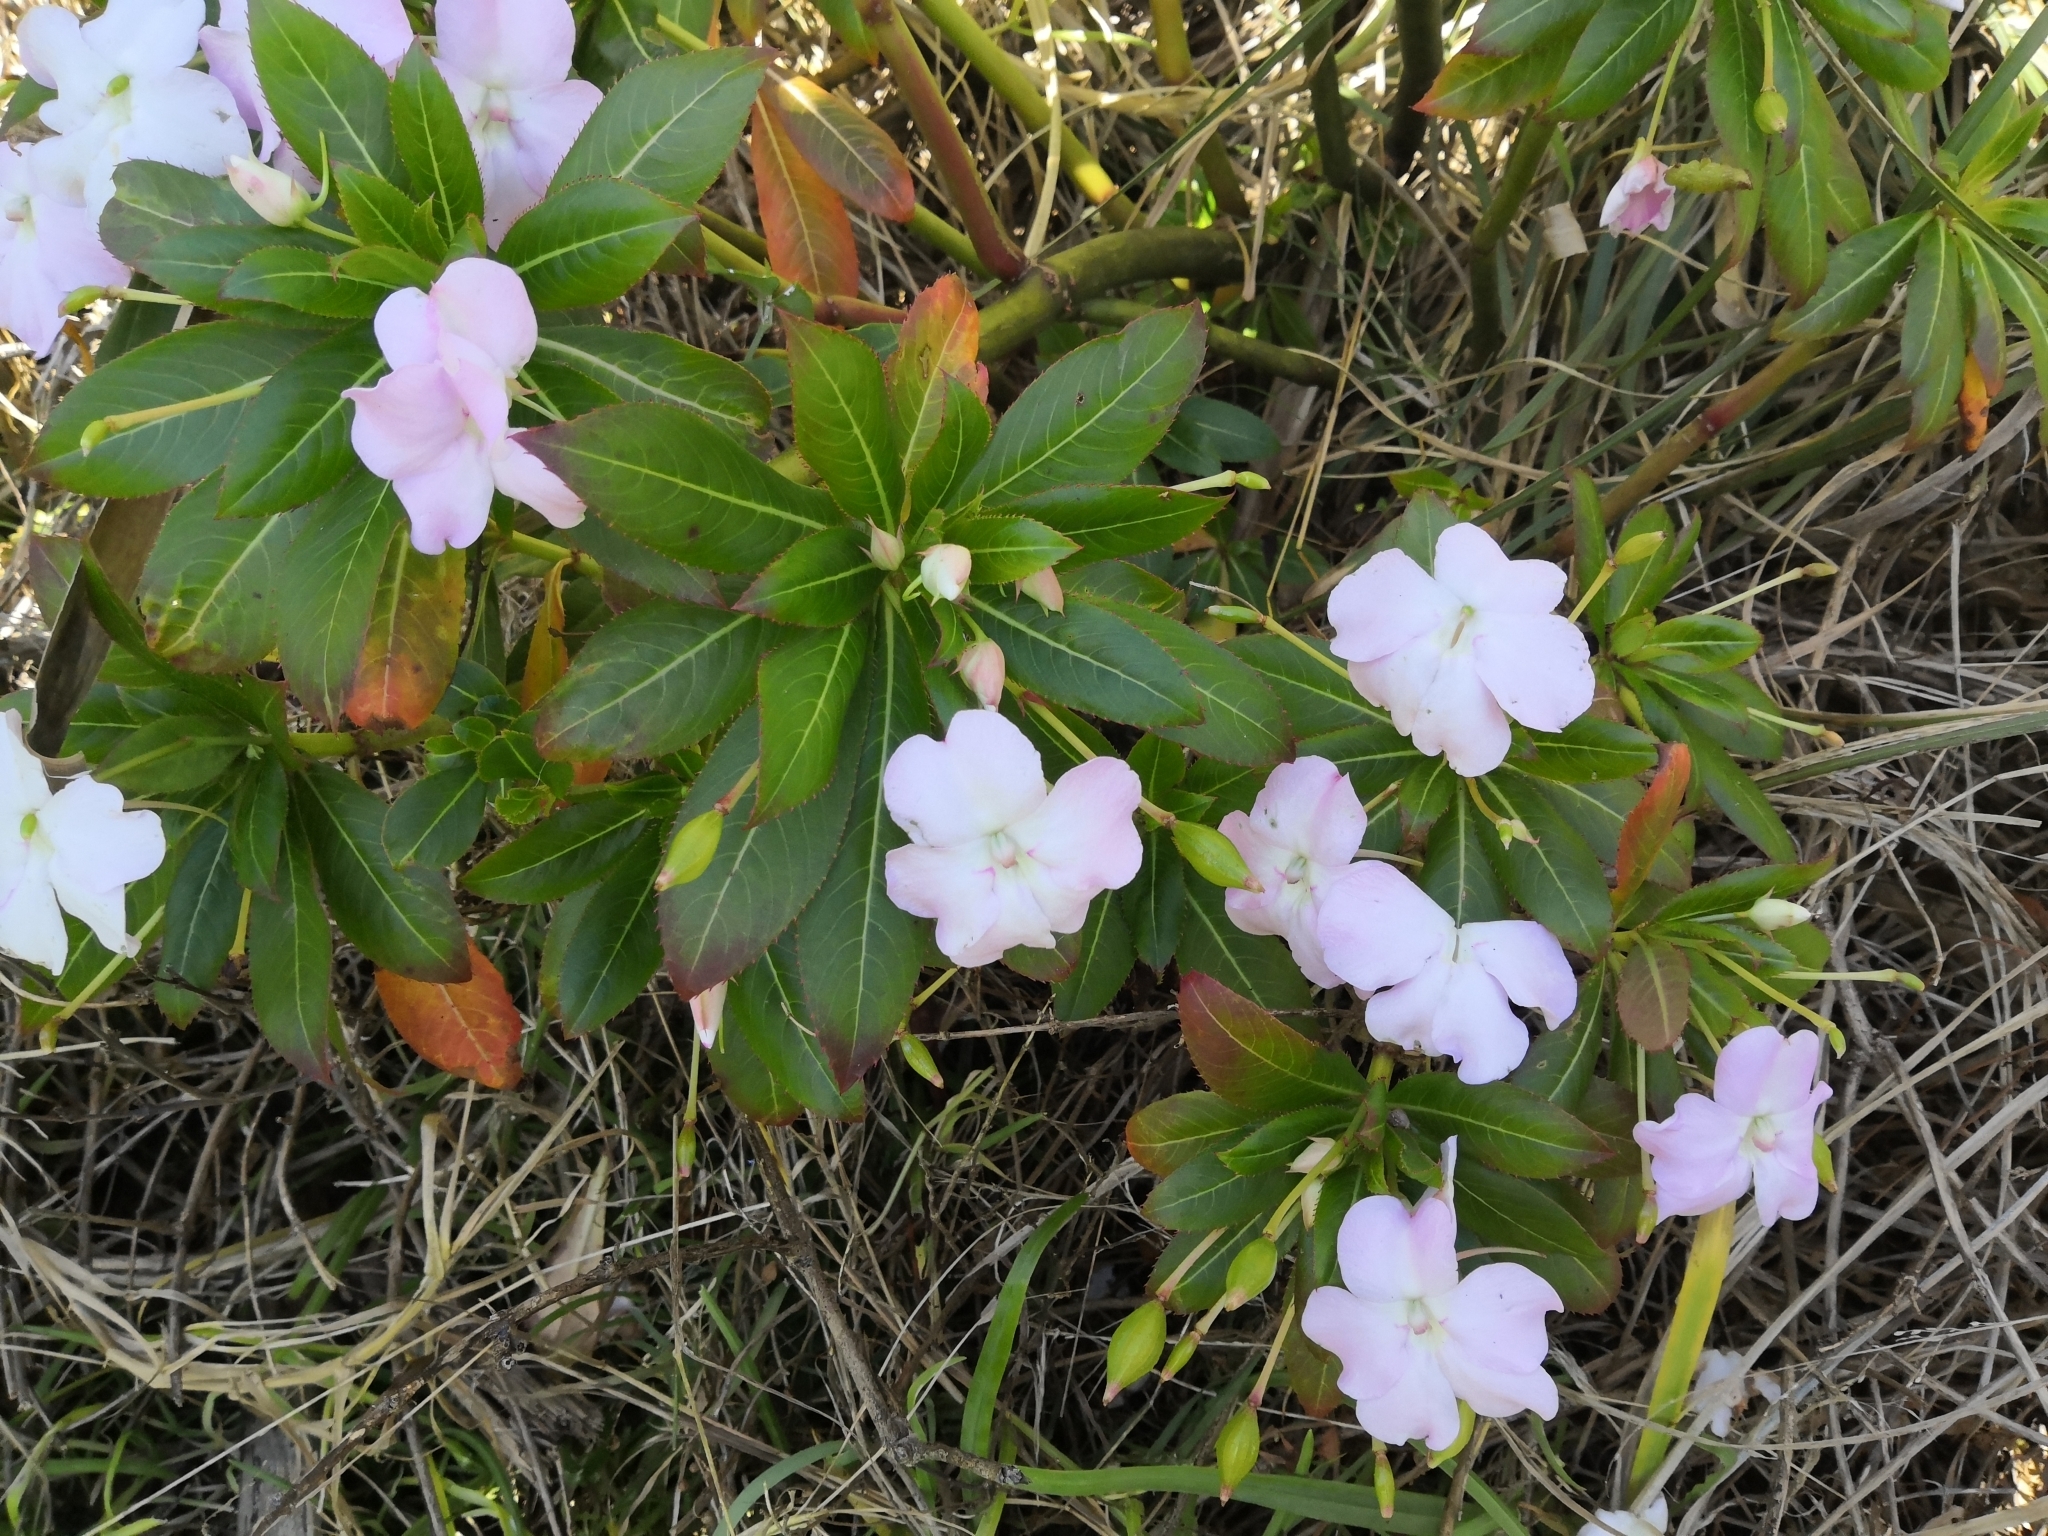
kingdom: Plantae
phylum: Tracheophyta
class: Magnoliopsida
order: Ericales
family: Balsaminaceae
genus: Impatiens
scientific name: Impatiens sodenii
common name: Oliver's touch-me-not
